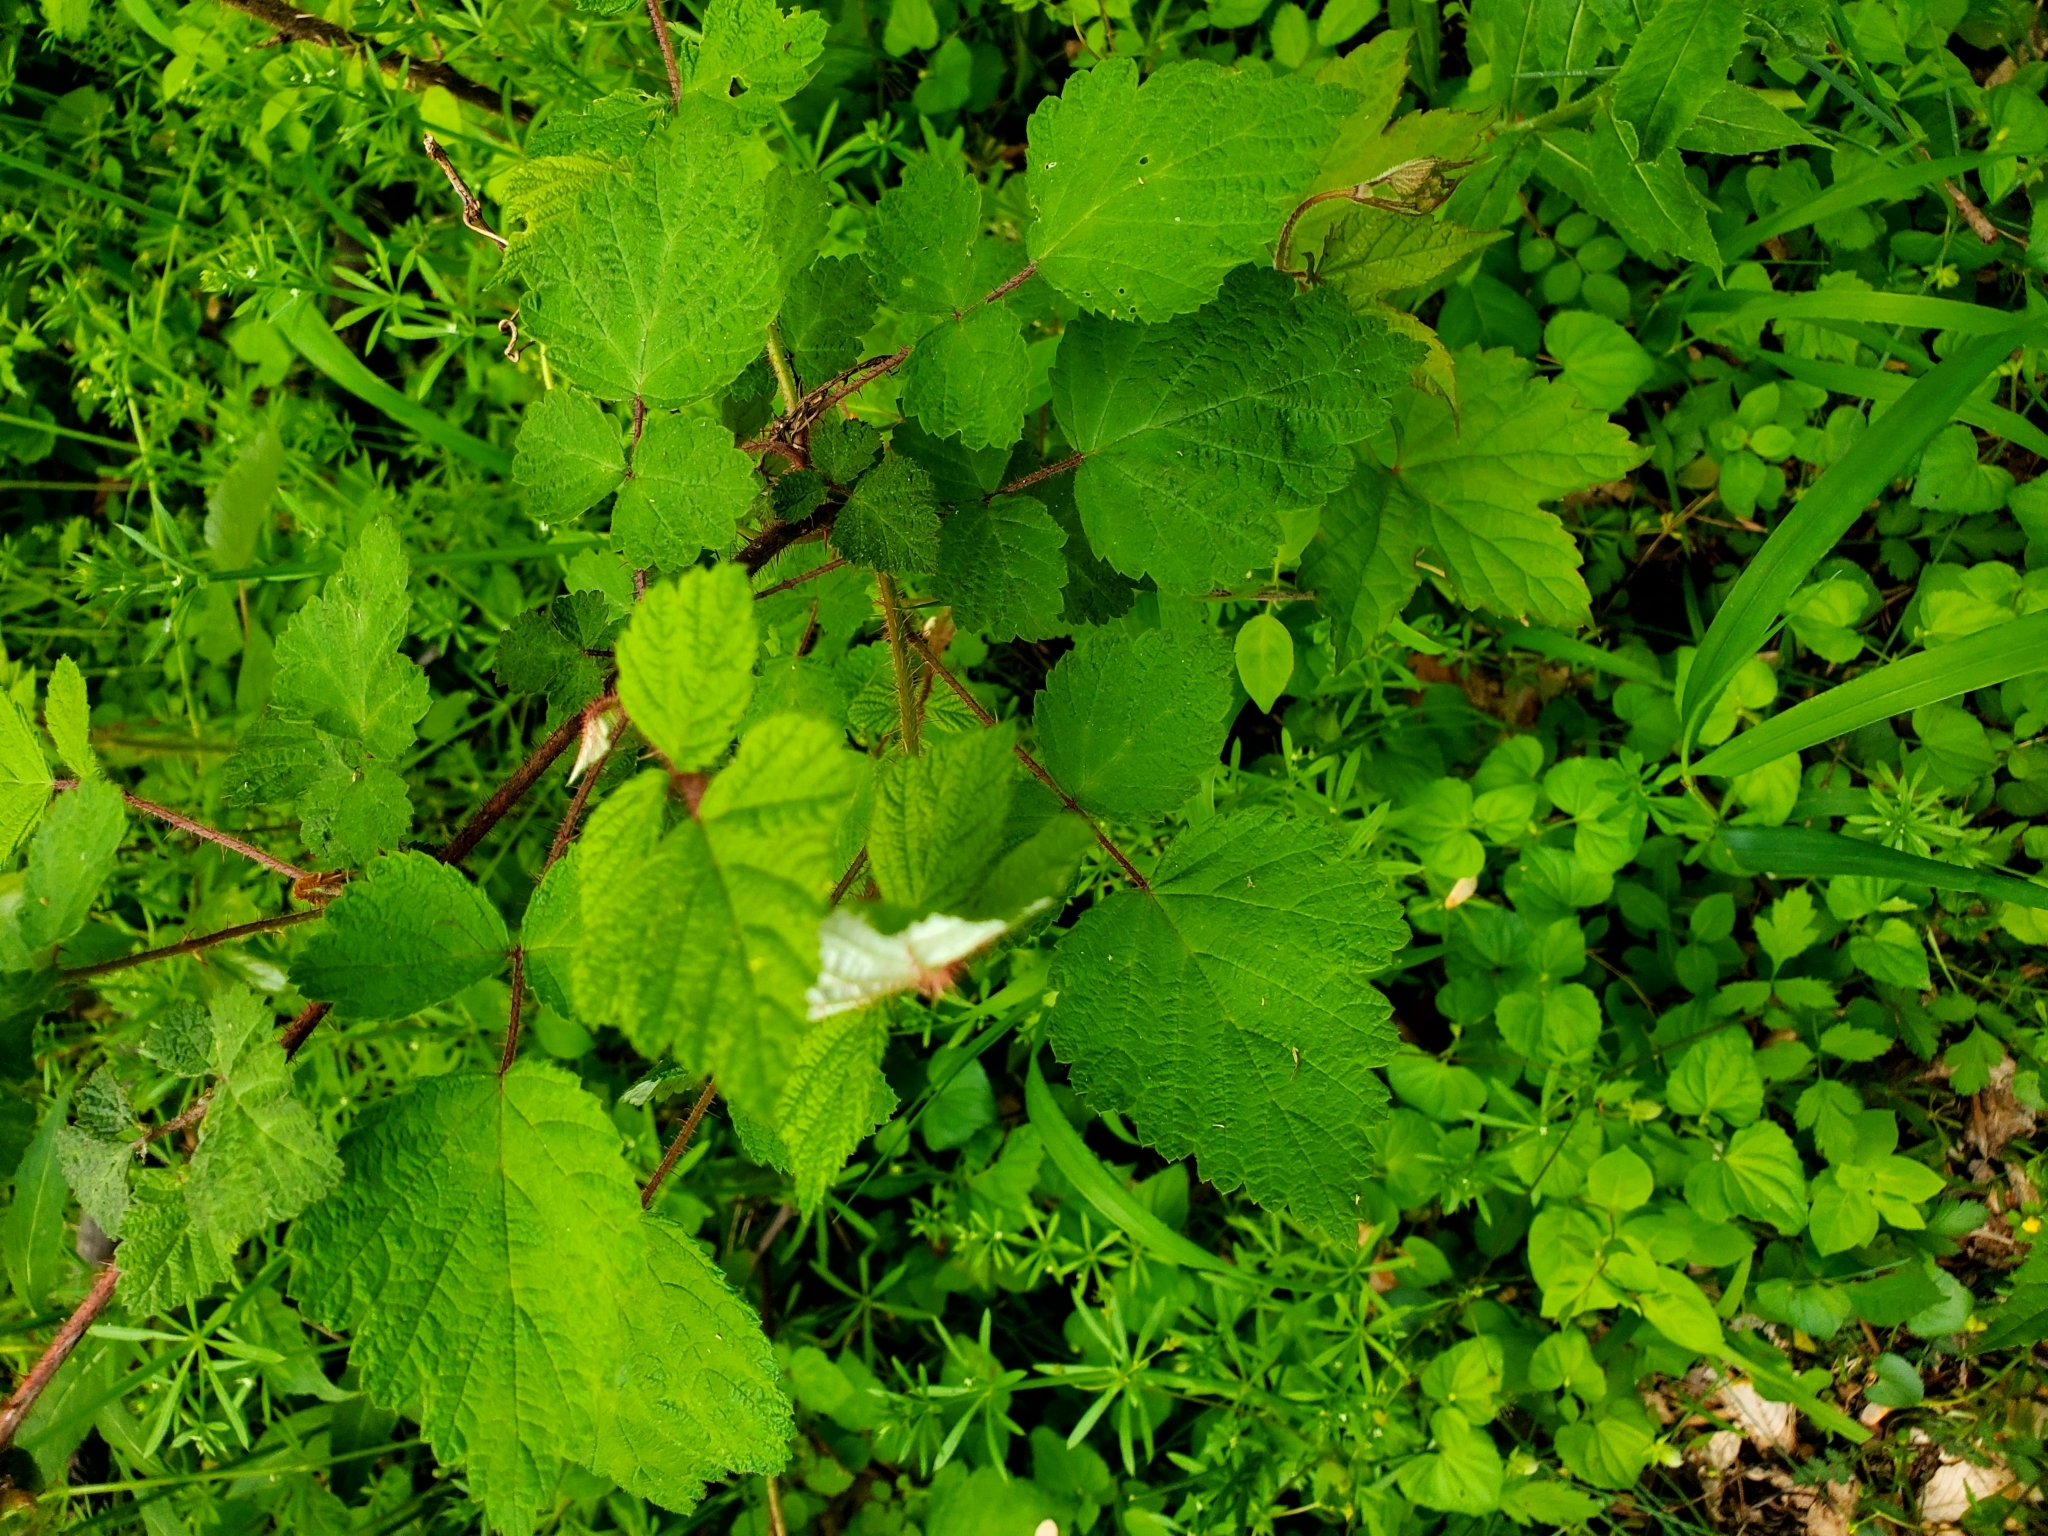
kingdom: Plantae
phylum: Tracheophyta
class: Magnoliopsida
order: Rosales
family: Rosaceae
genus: Rubus
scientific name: Rubus phoenicolasius
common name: Japanese wineberry
